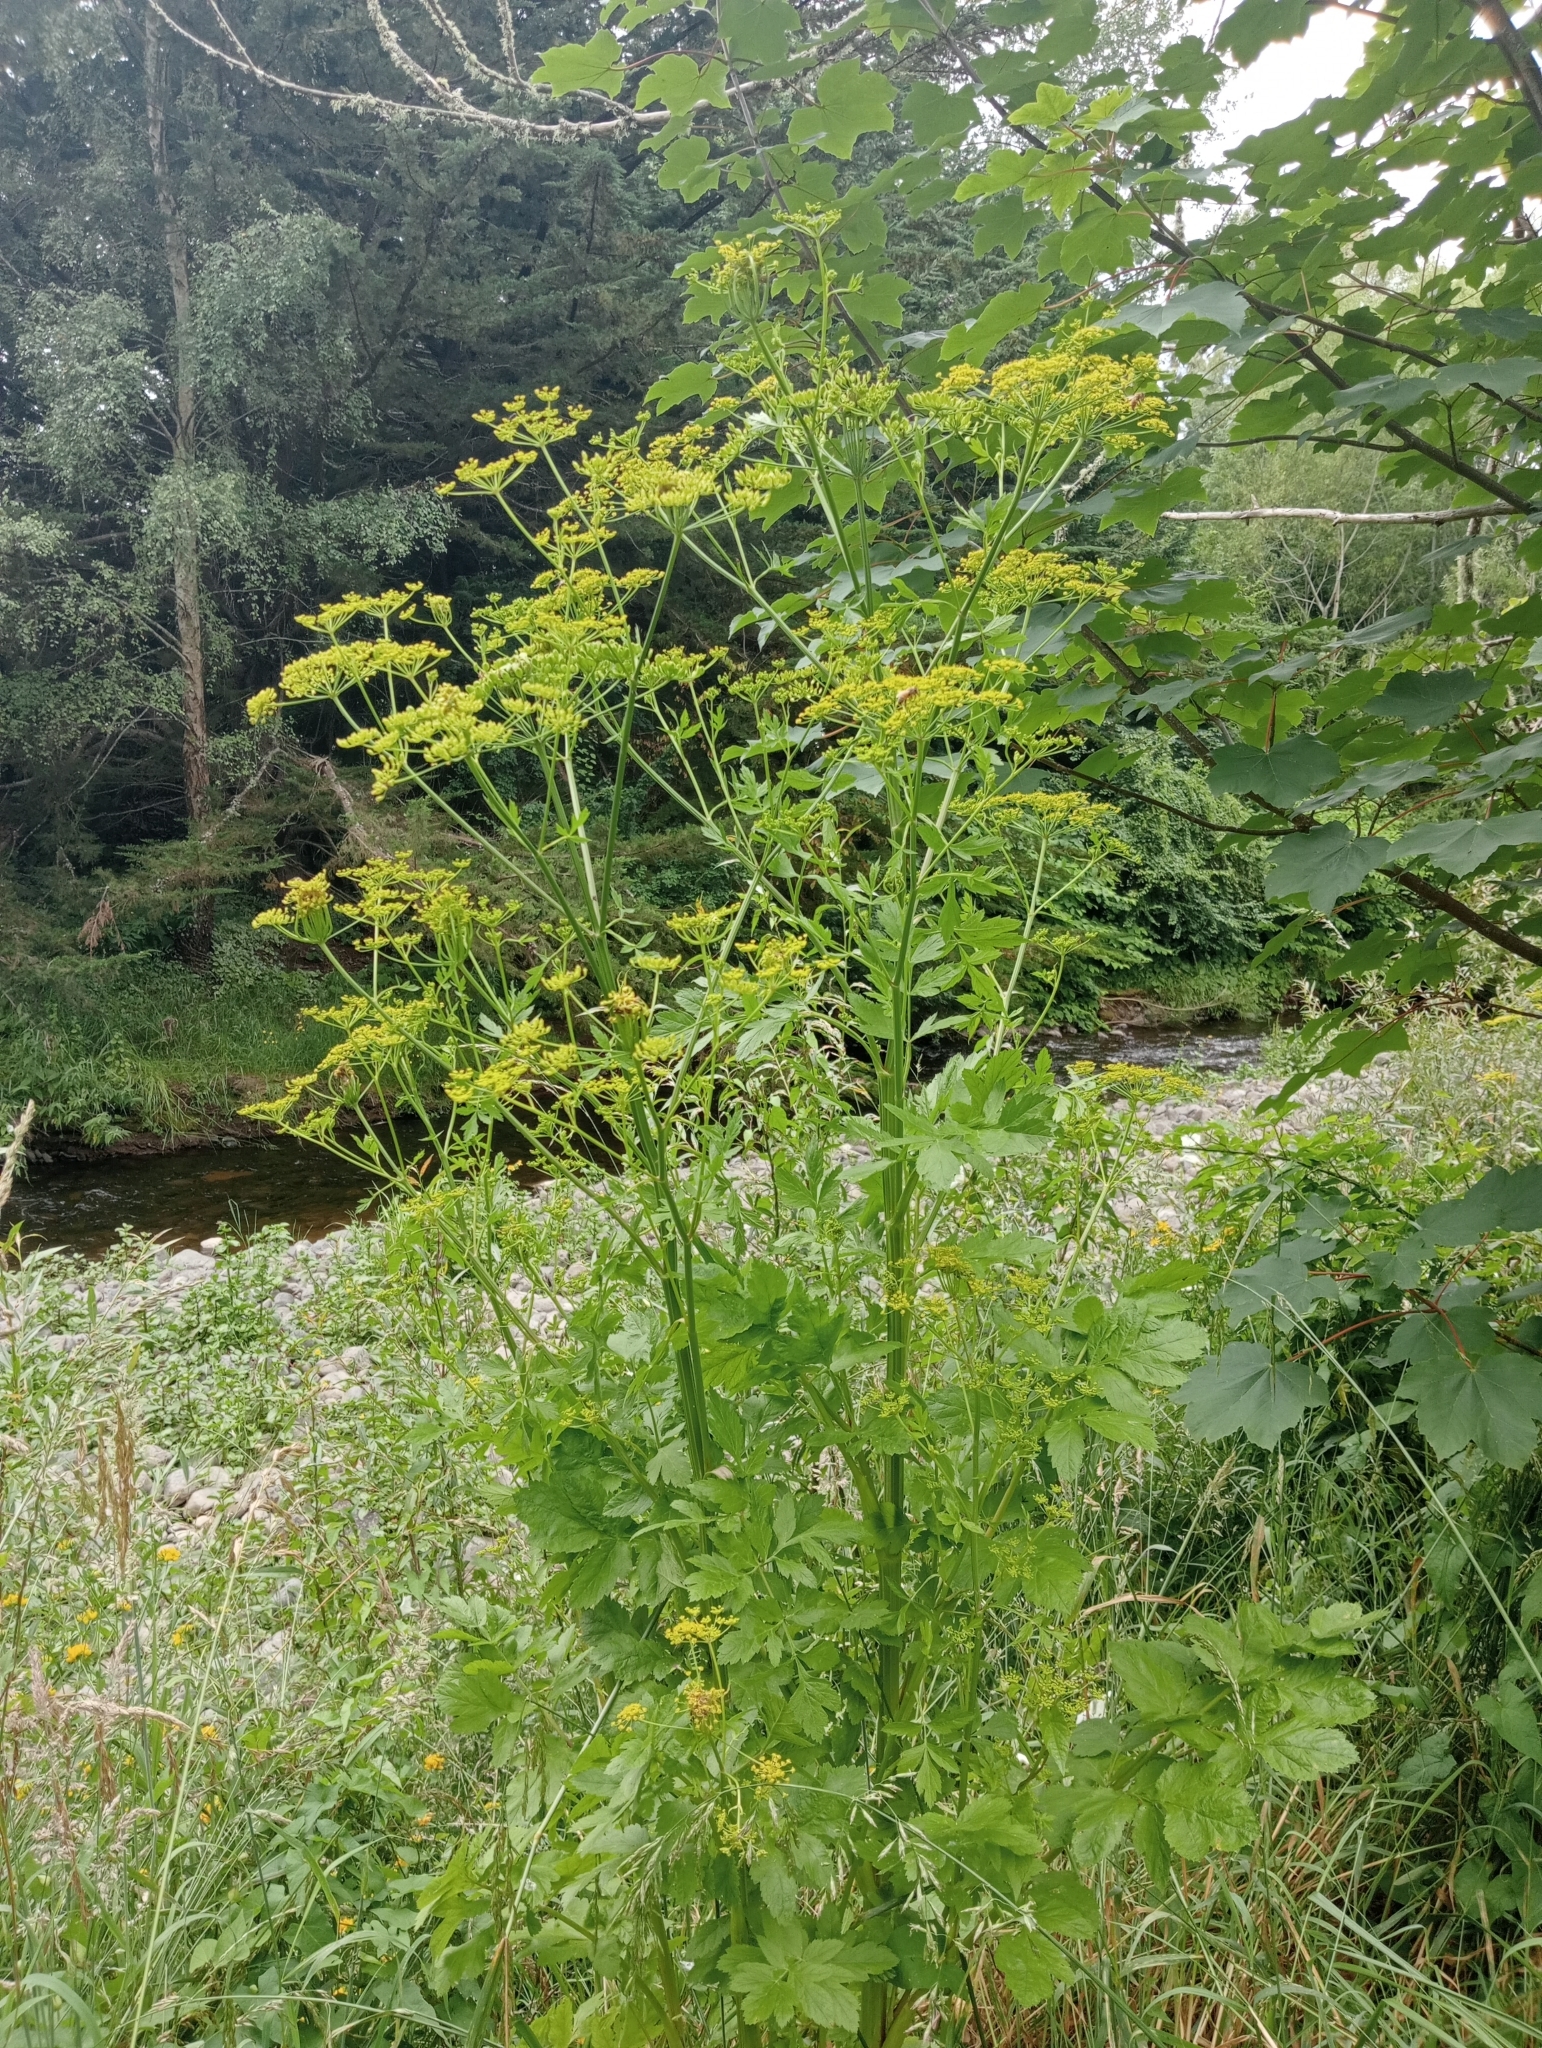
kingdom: Plantae
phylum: Tracheophyta
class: Magnoliopsida
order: Apiales
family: Apiaceae
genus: Pastinaca
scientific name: Pastinaca sativa
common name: Wild parsnip
